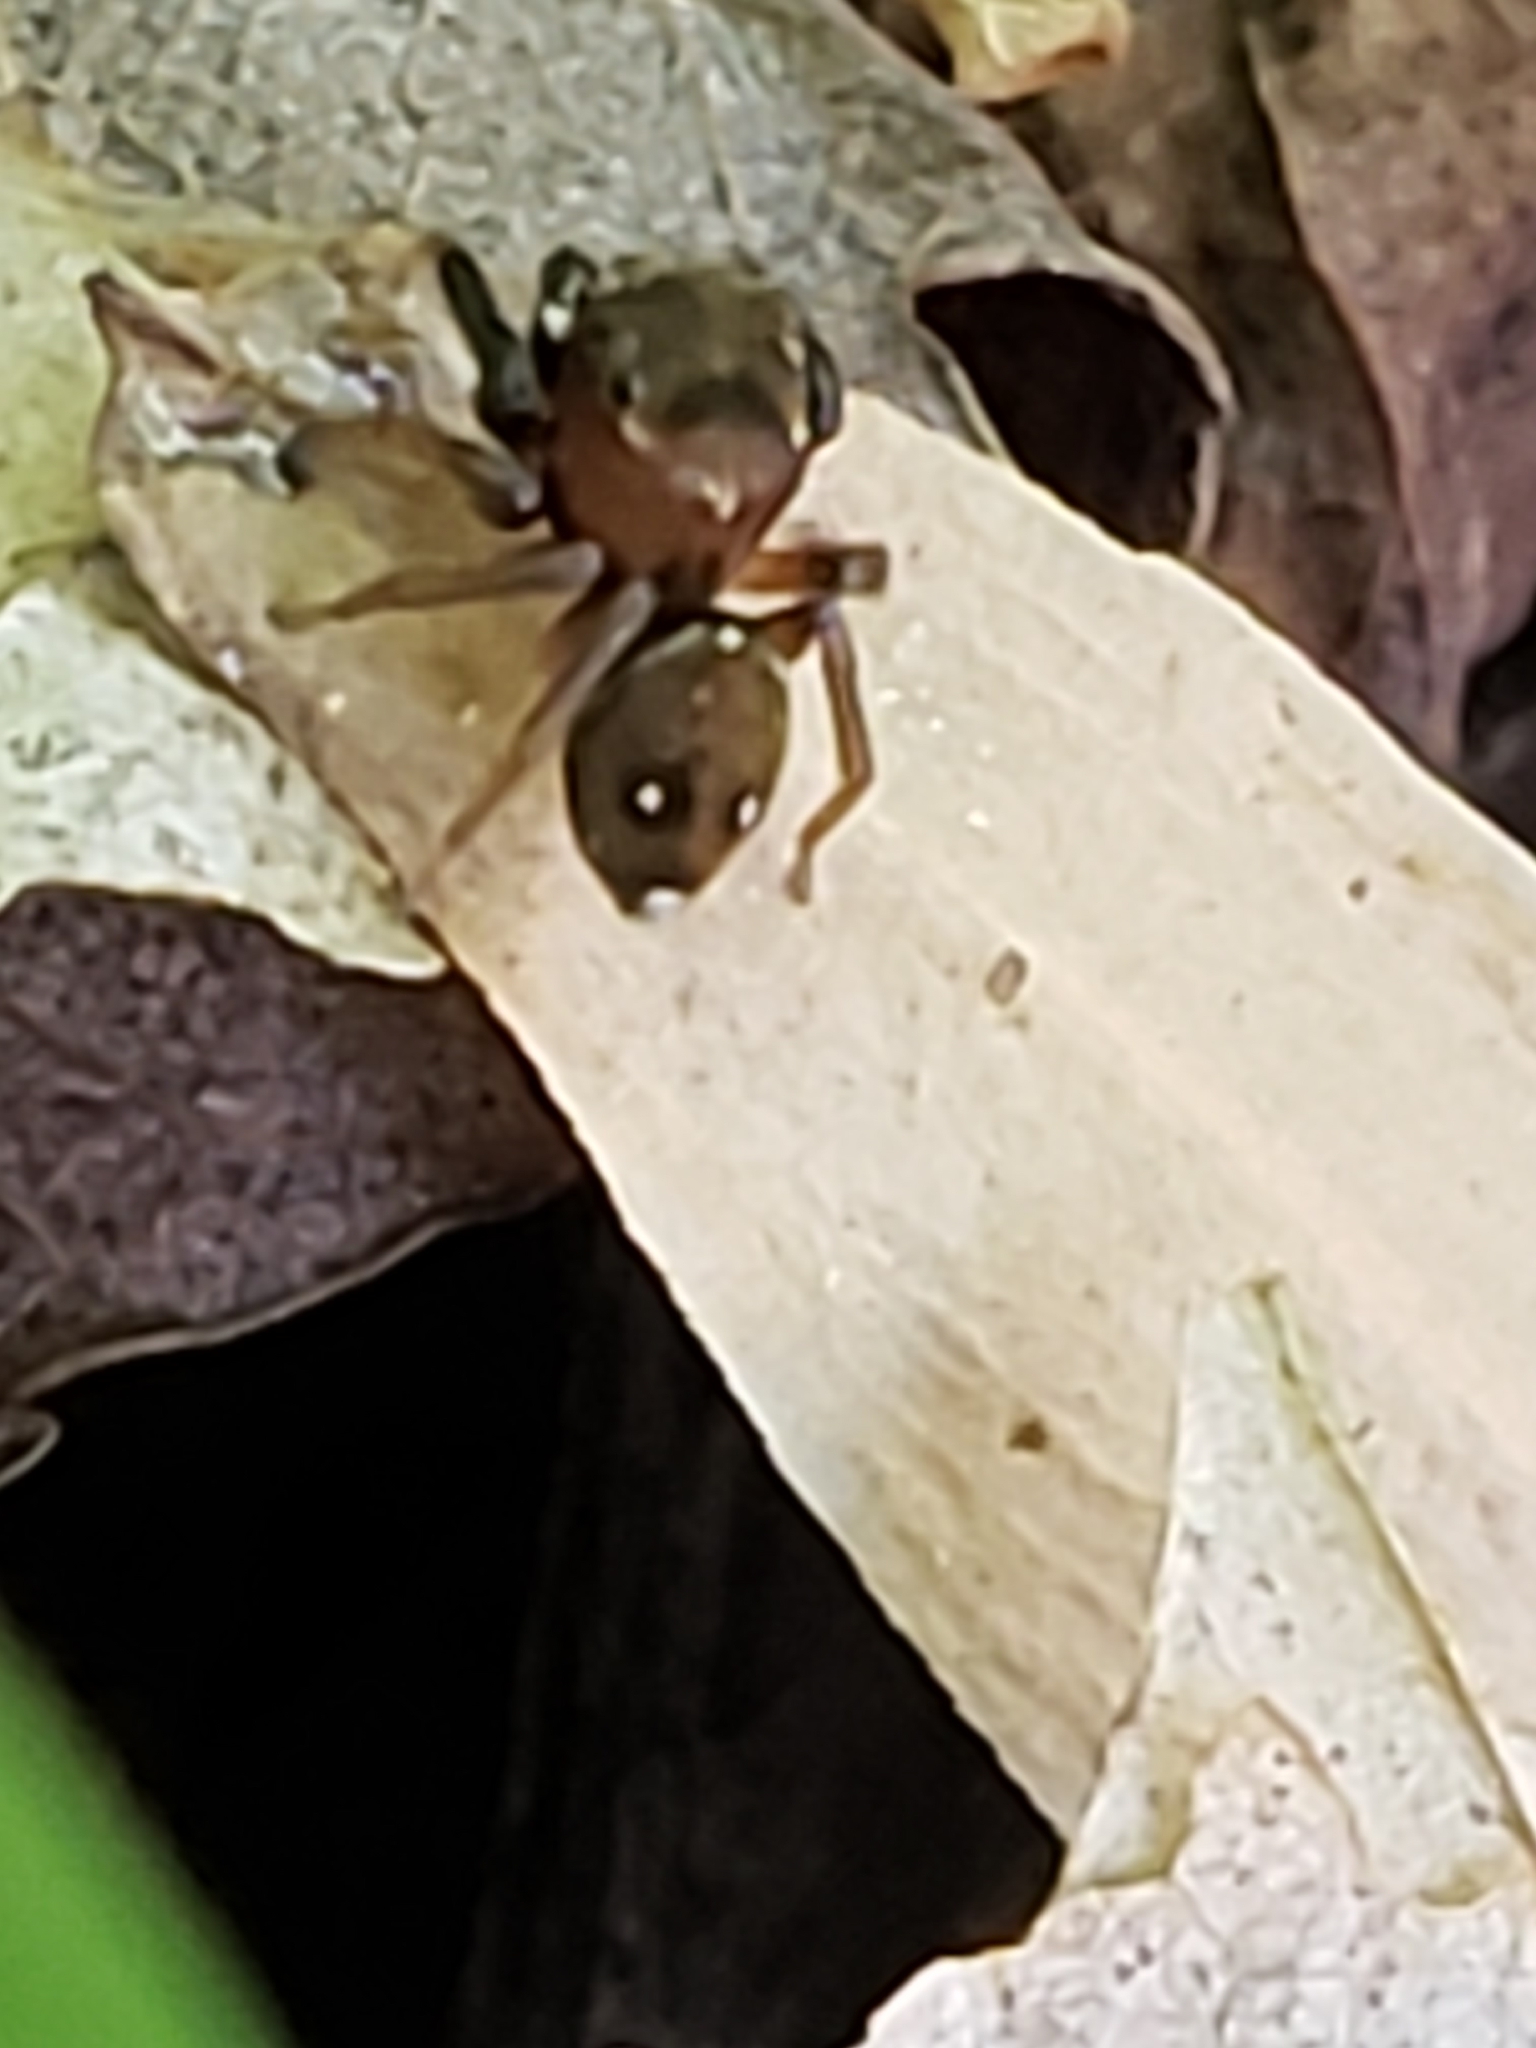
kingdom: Animalia
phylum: Arthropoda
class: Arachnida
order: Araneae
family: Salticidae
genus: Chinattus
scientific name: Chinattus parvulus
